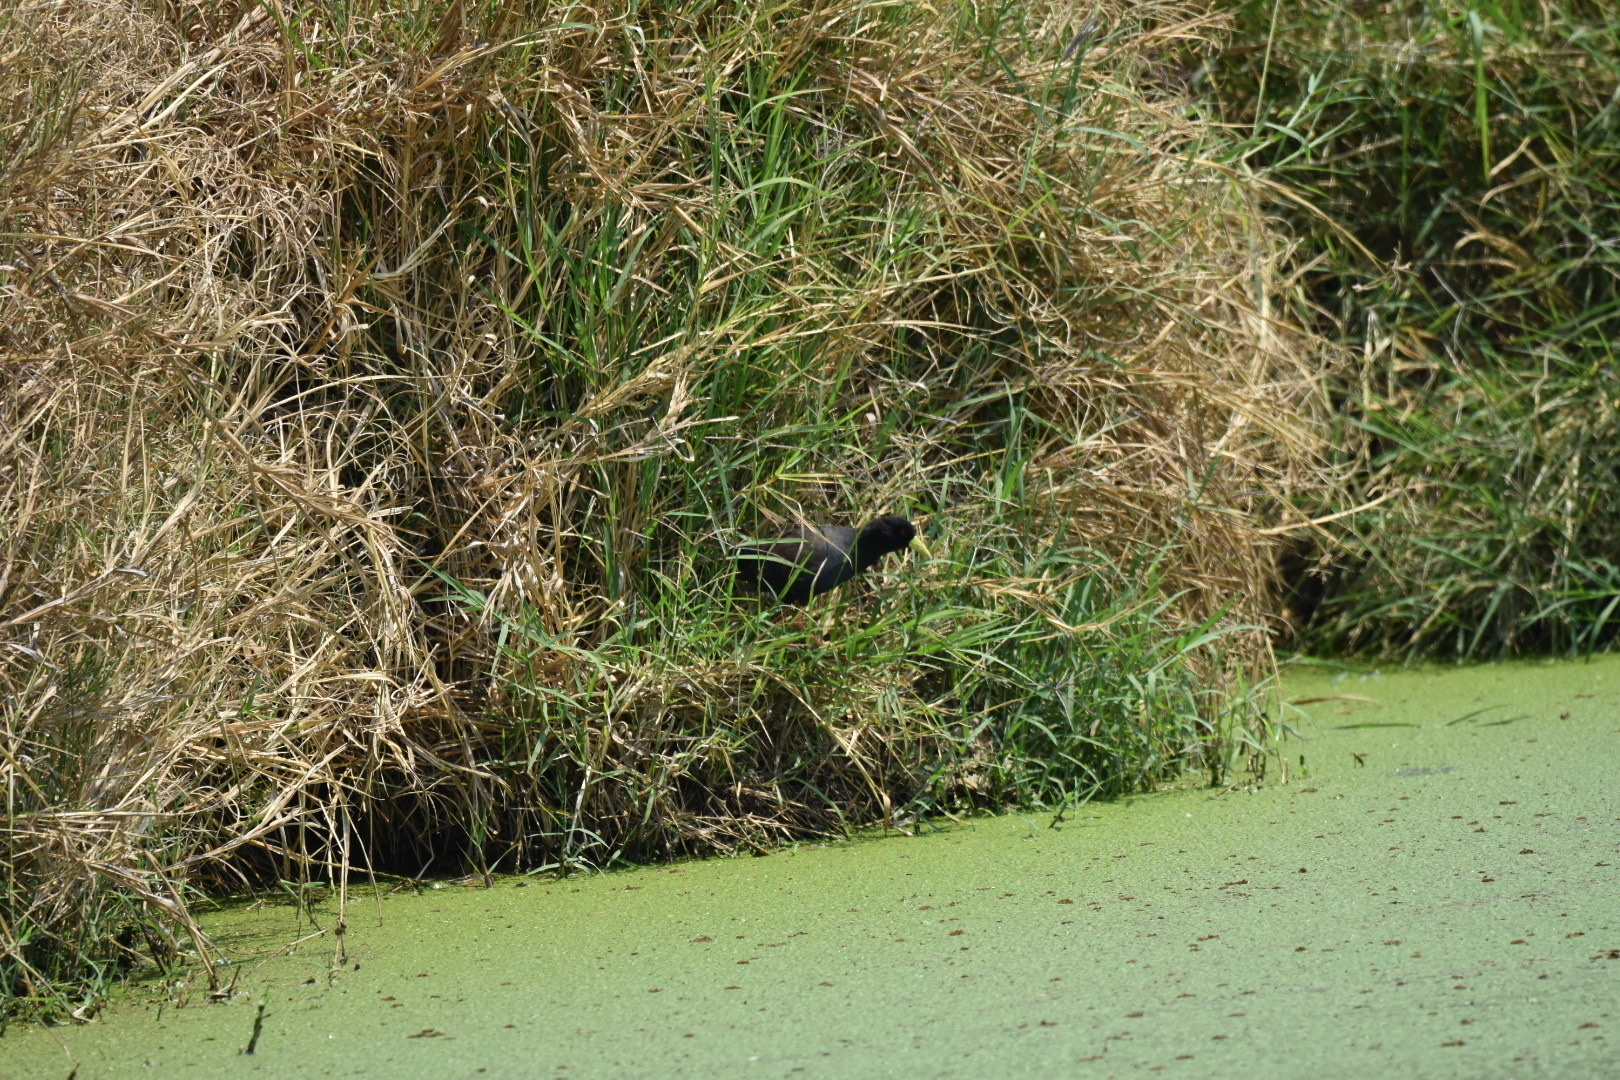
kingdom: Animalia
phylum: Chordata
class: Aves
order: Gruiformes
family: Rallidae
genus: Amaurornis
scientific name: Amaurornis flavirostra
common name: Black crake
